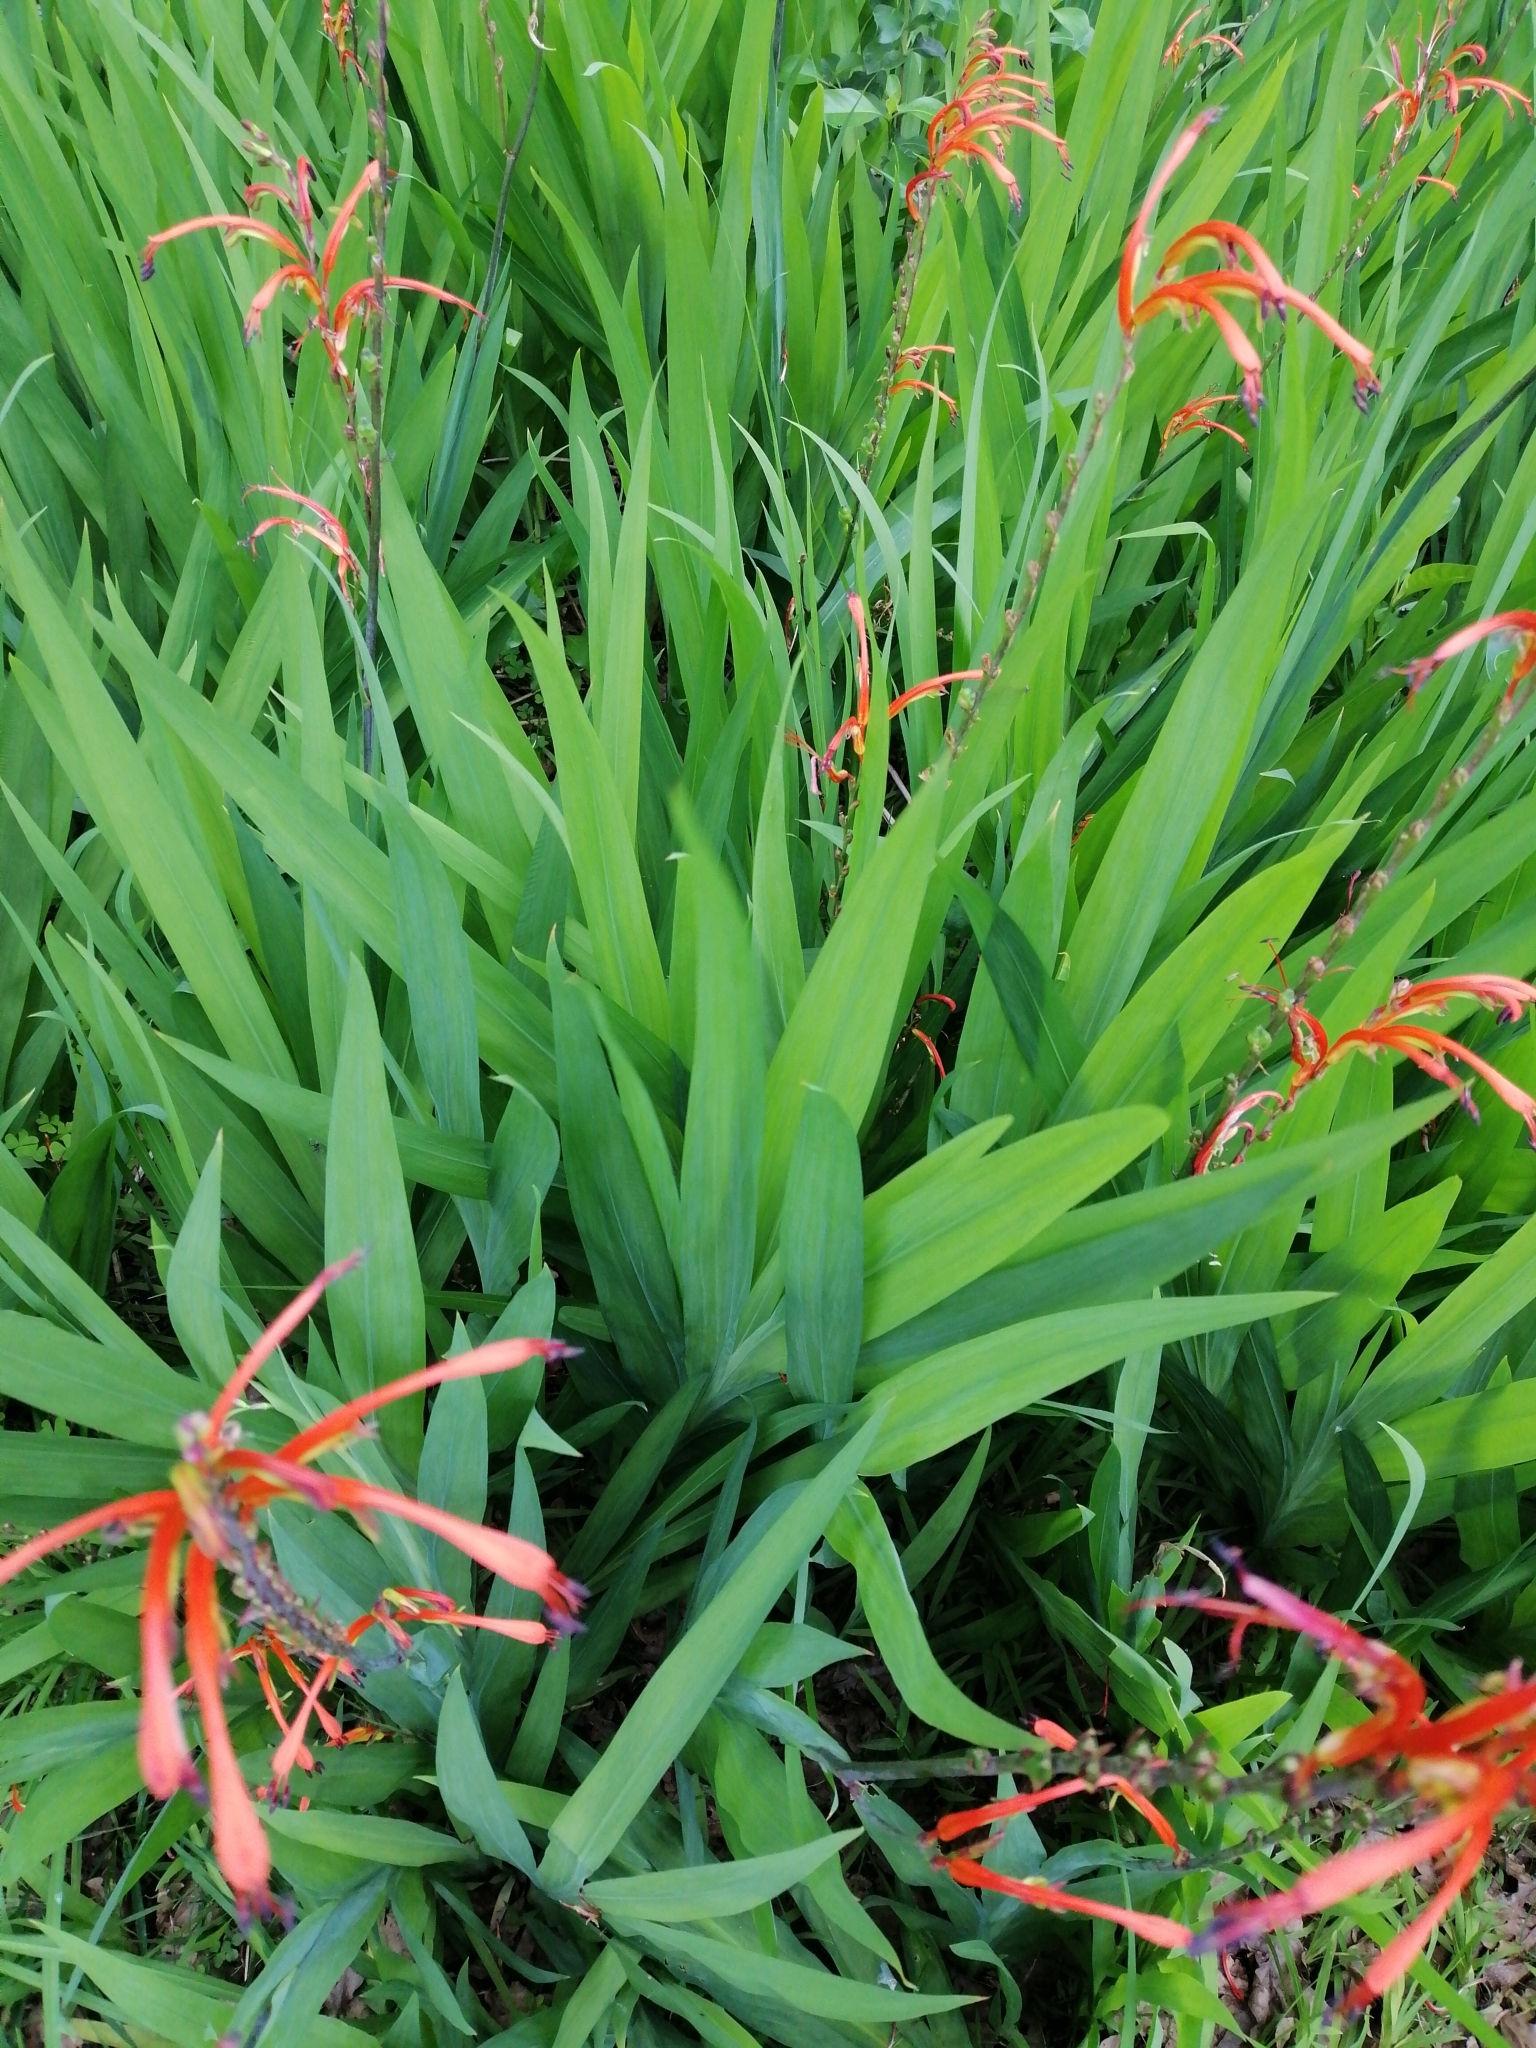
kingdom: Plantae
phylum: Tracheophyta
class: Liliopsida
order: Asparagales
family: Iridaceae
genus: Chasmanthe
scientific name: Chasmanthe floribunda
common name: African cornflag
